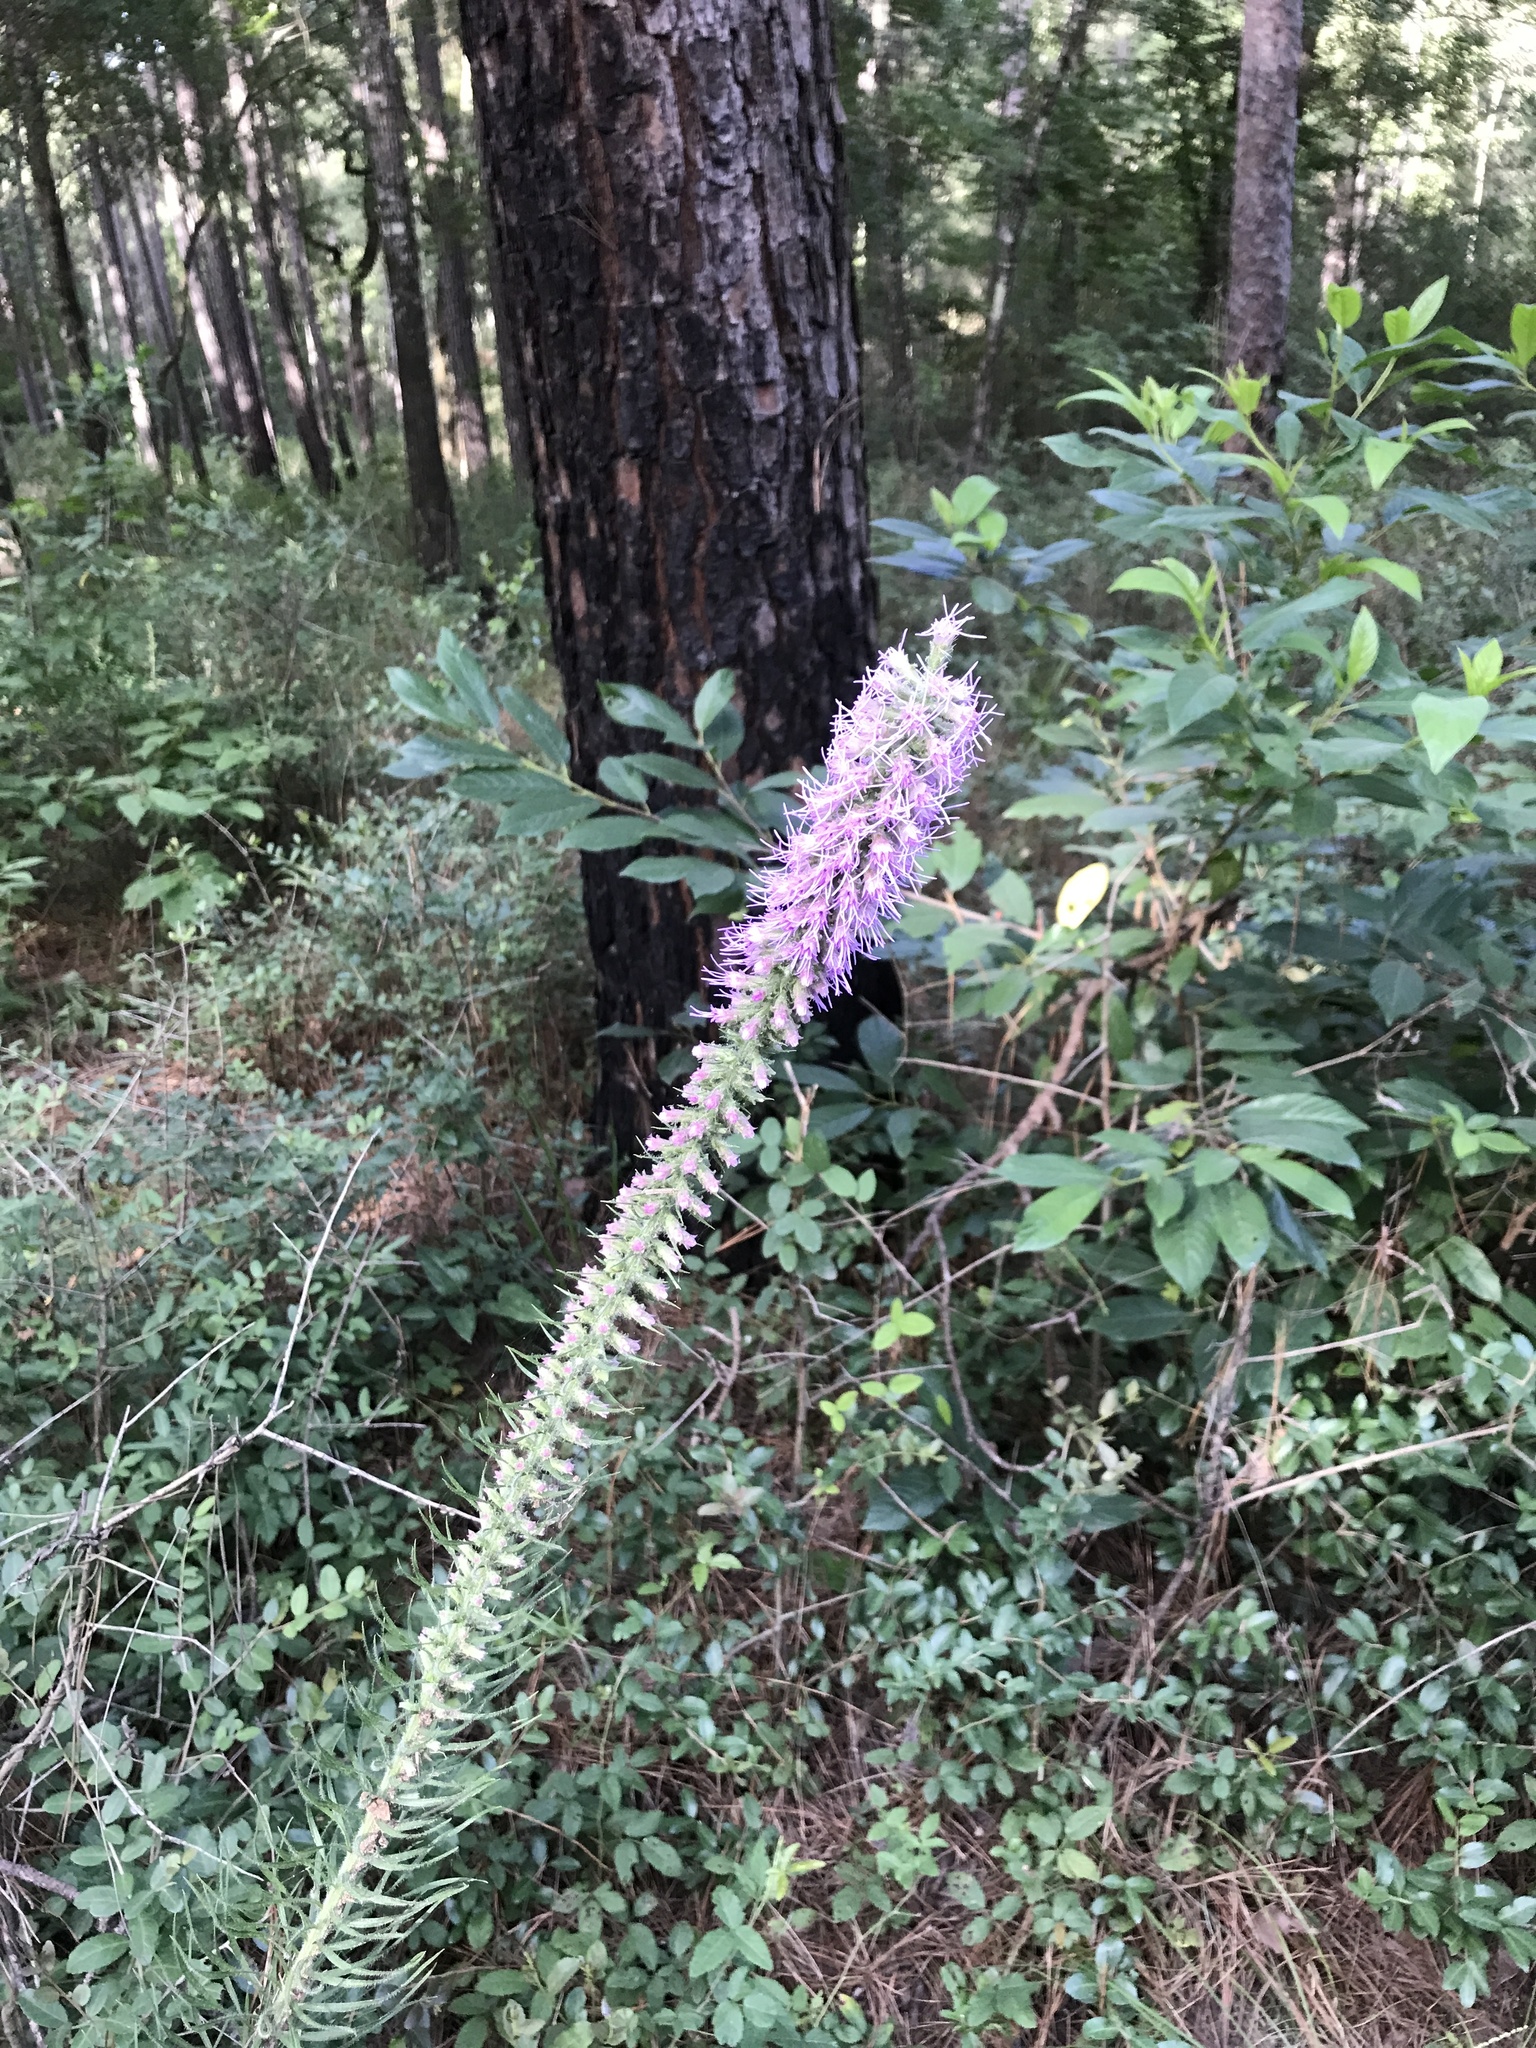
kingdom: Plantae
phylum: Tracheophyta
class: Magnoliopsida
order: Asterales
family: Asteraceae
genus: Liatris
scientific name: Liatris pycnostachya
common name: Cattail gayfeather
